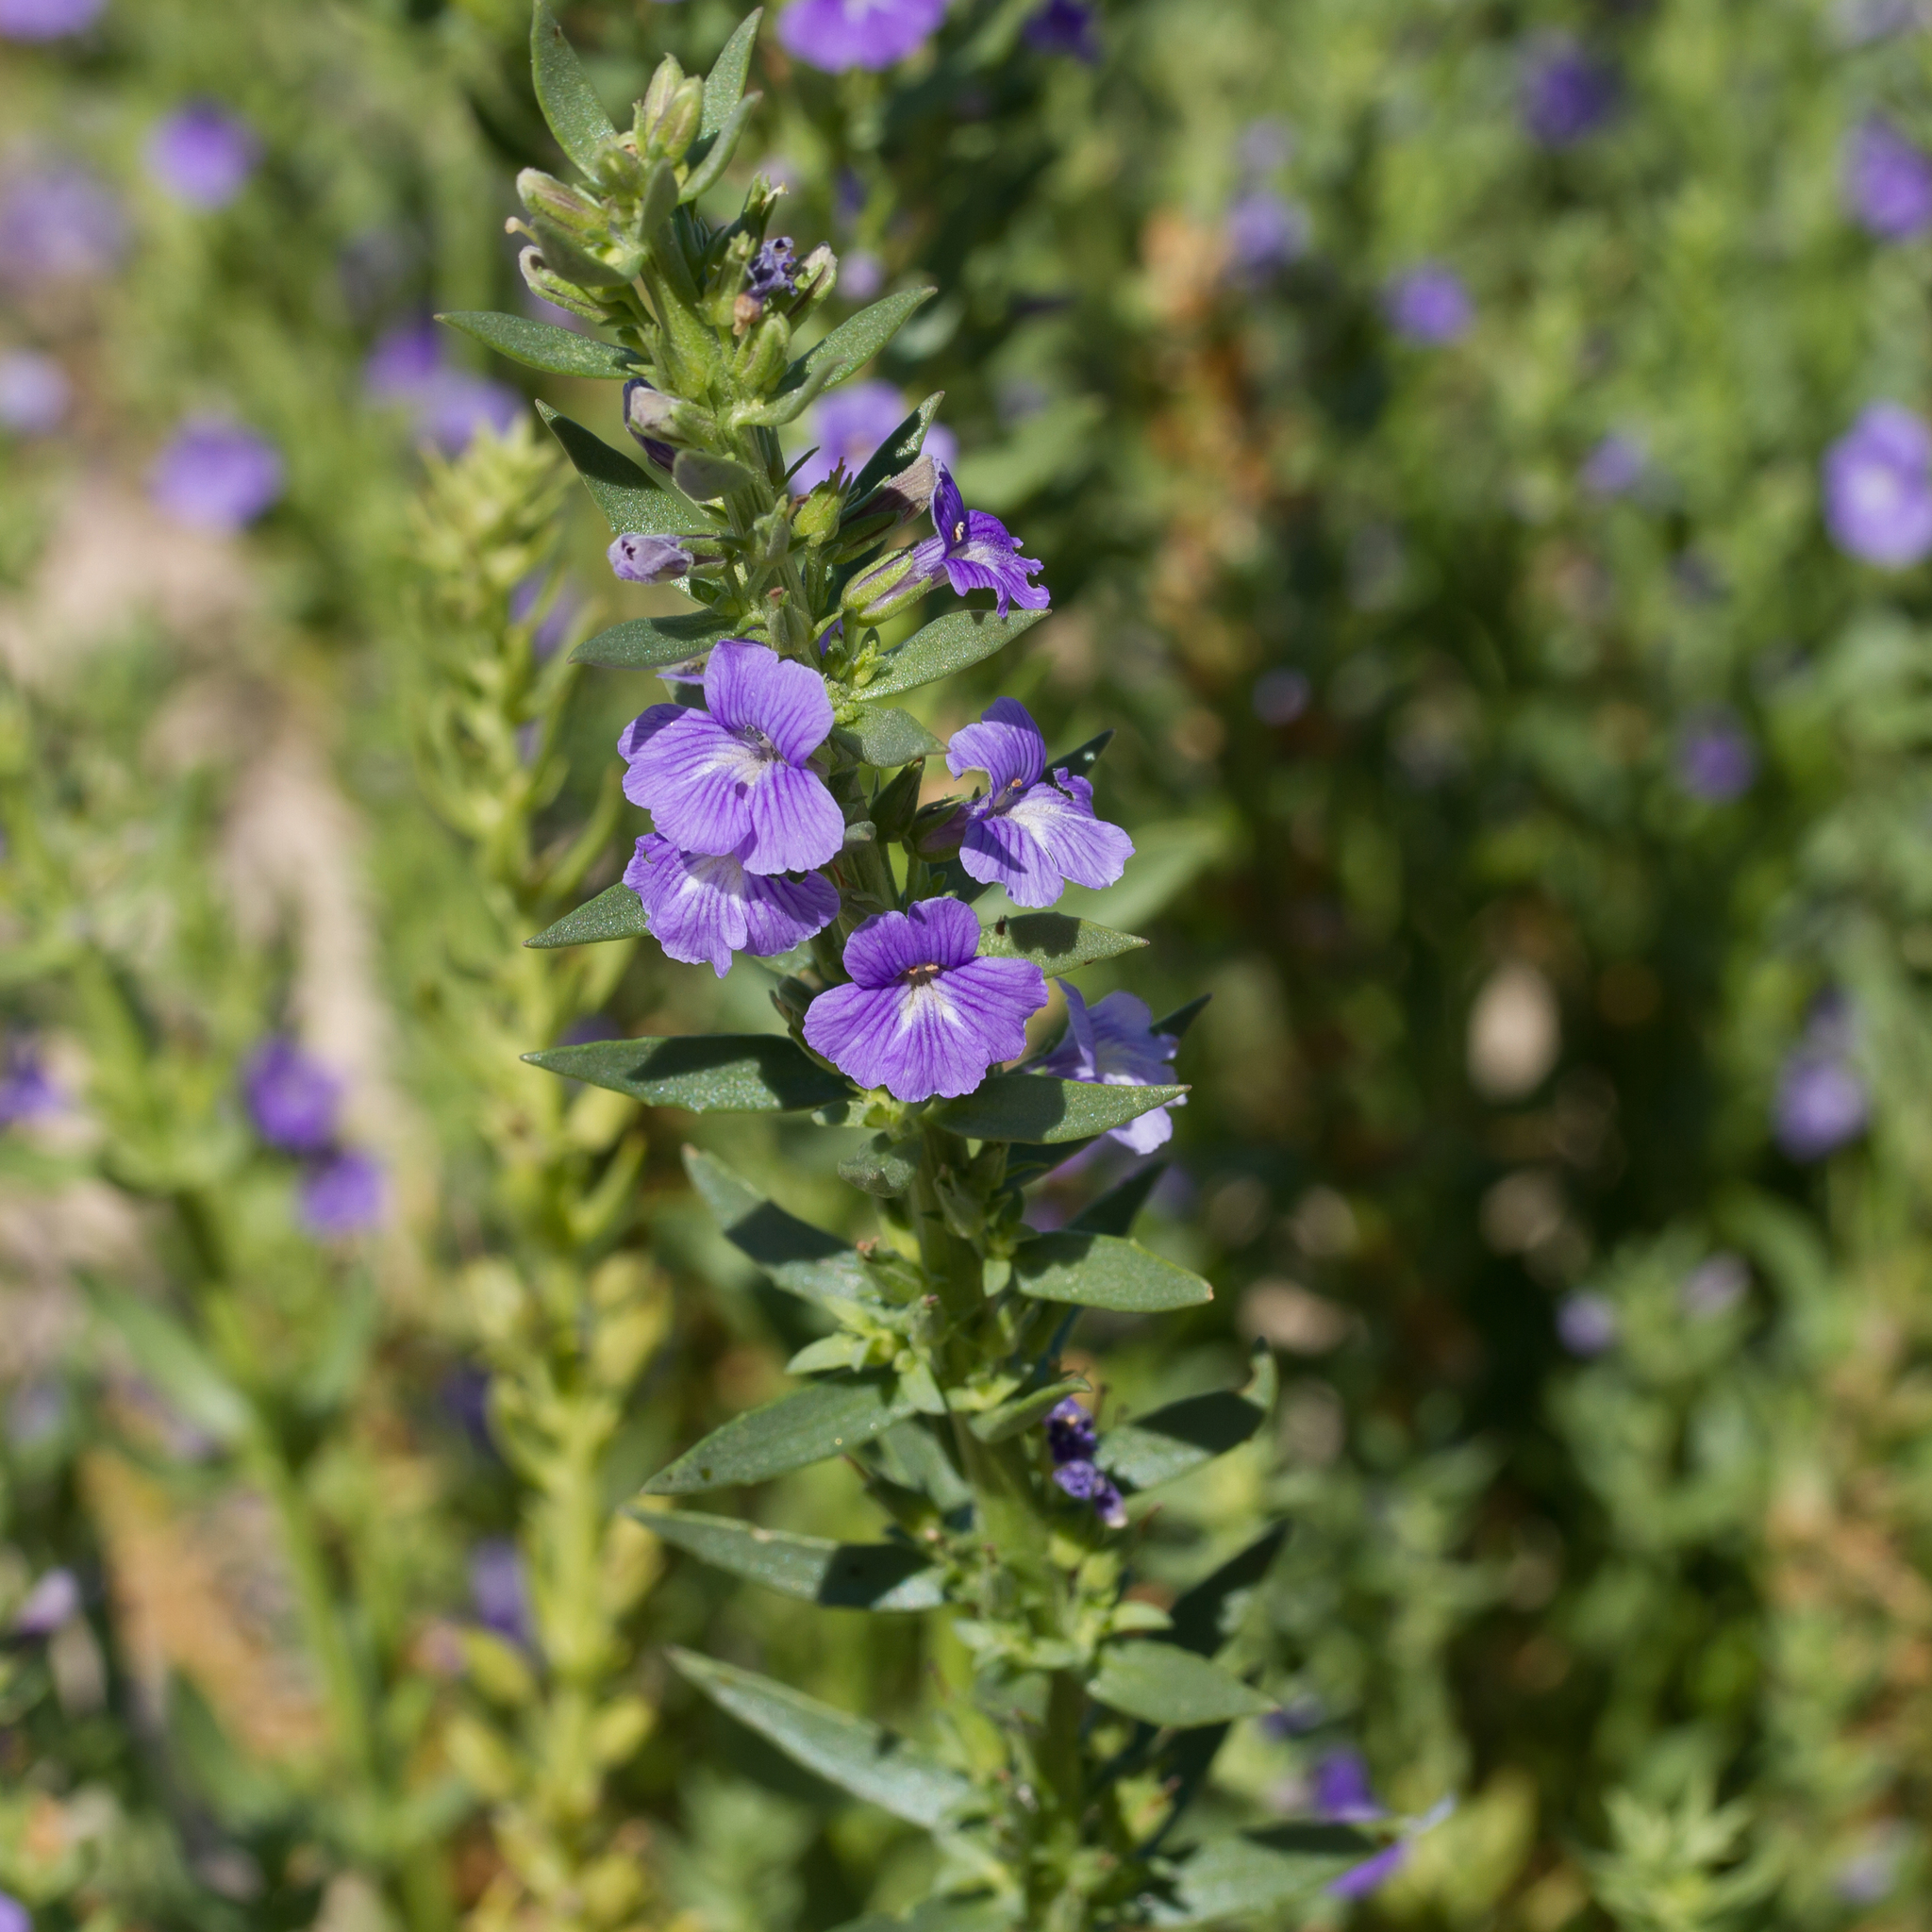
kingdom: Plantae
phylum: Tracheophyta
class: Magnoliopsida
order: Lamiales
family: Plantaginaceae
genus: Stemodia
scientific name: Stemodia florulenta
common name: Bluerod
